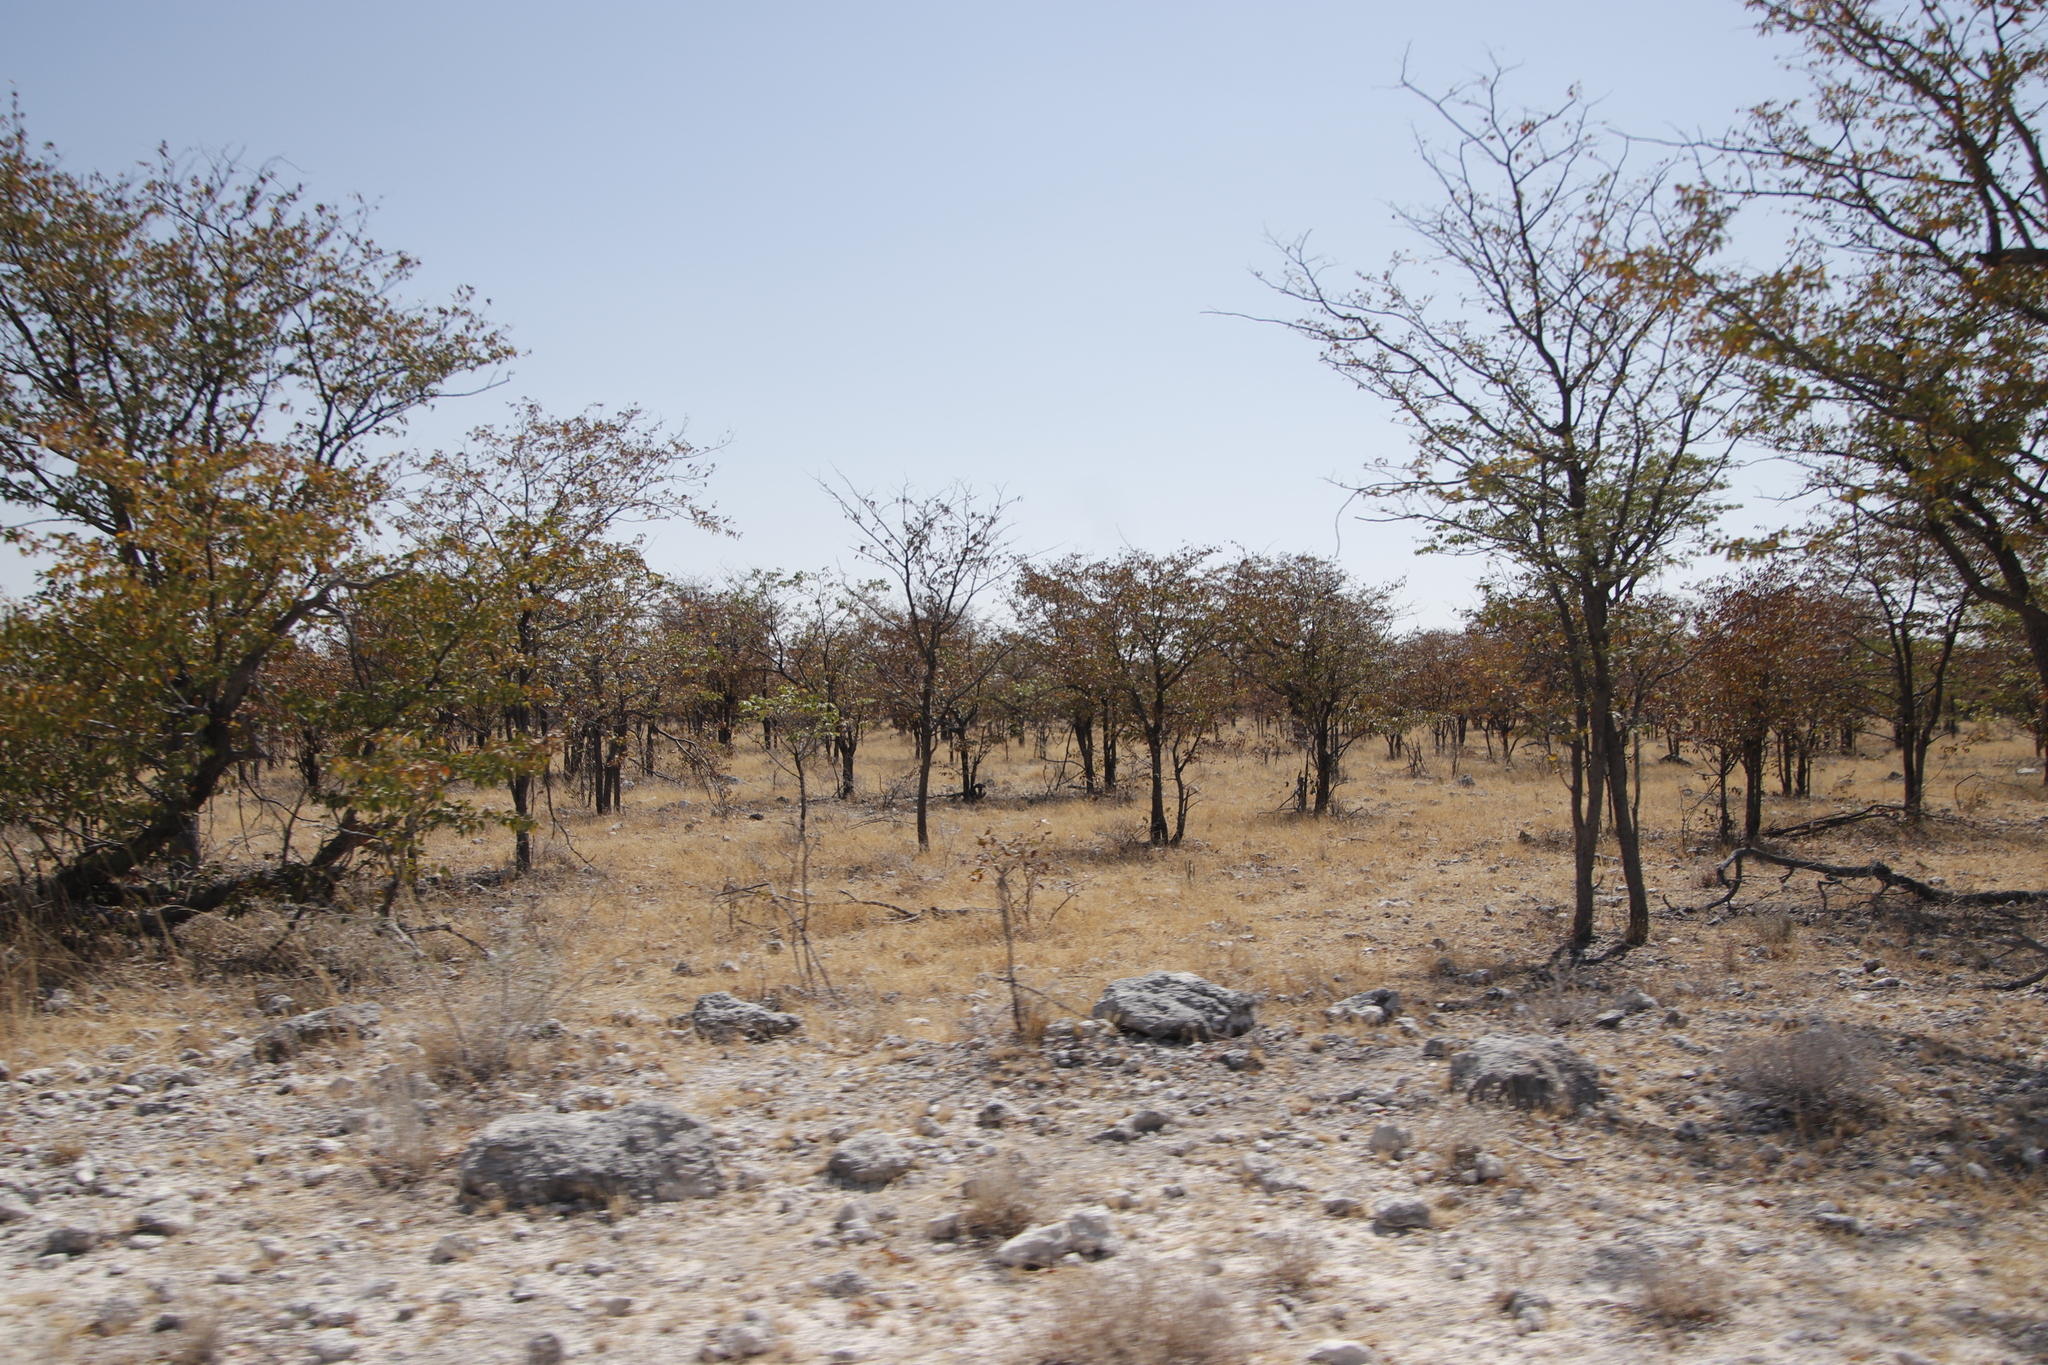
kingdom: Plantae
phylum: Tracheophyta
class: Magnoliopsida
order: Fabales
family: Fabaceae
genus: Colophospermum
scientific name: Colophospermum mopane
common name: Mopane
